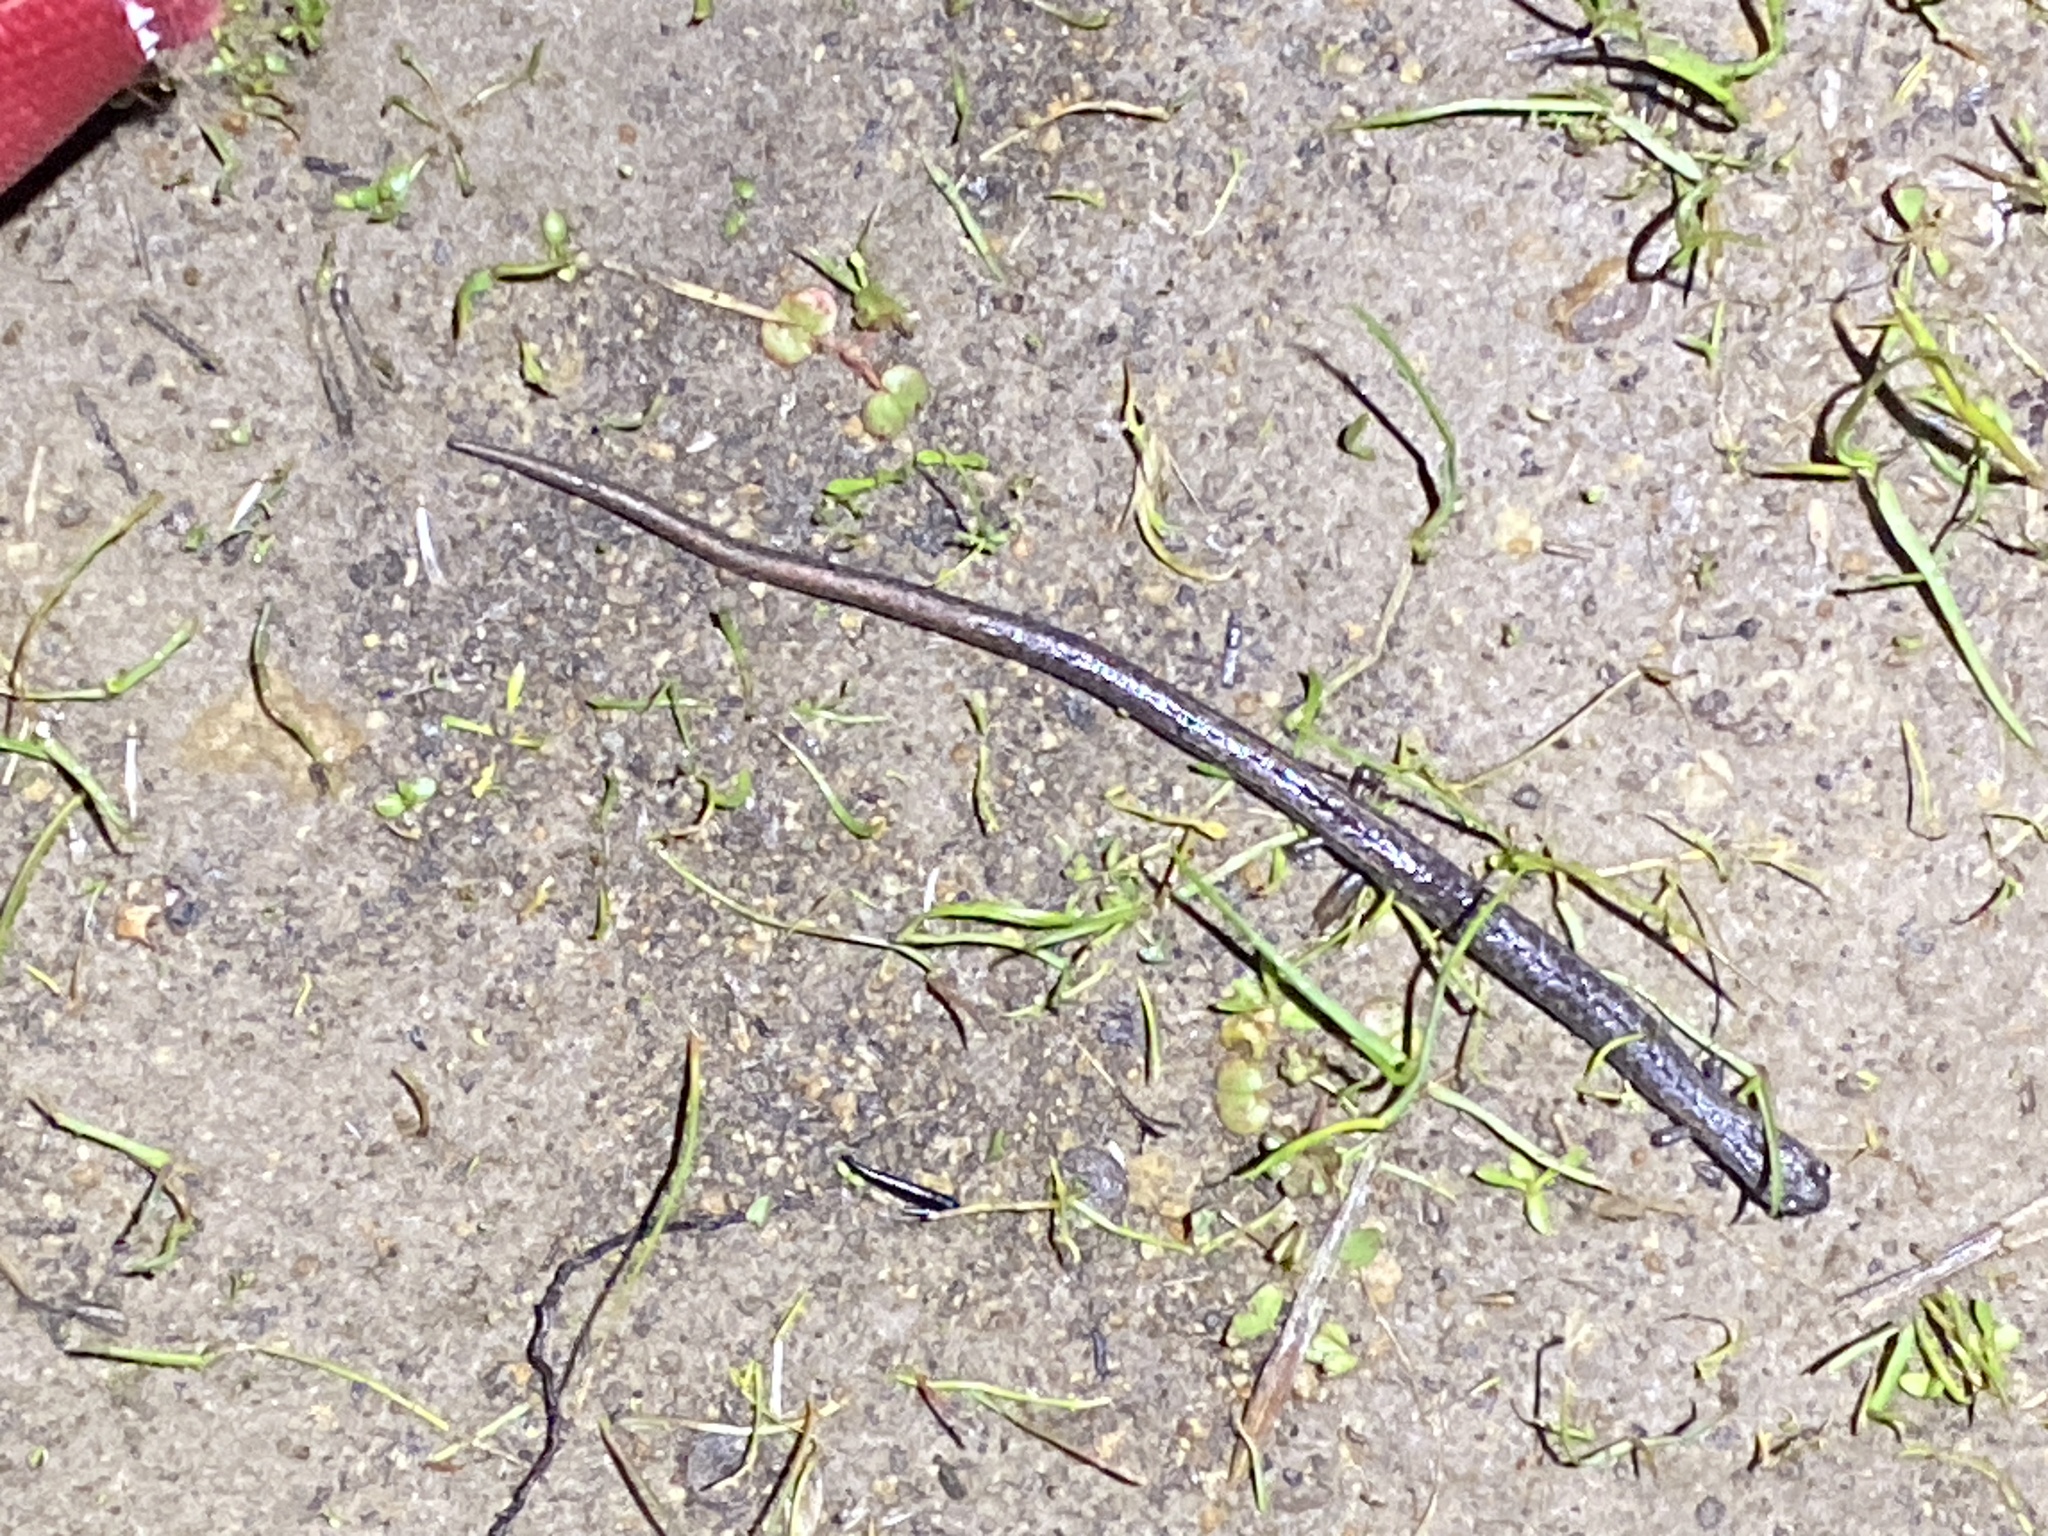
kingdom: Animalia
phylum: Chordata
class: Amphibia
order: Caudata
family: Plethodontidae
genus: Batrachoseps
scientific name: Batrachoseps attenuatus
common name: California slender salamander
